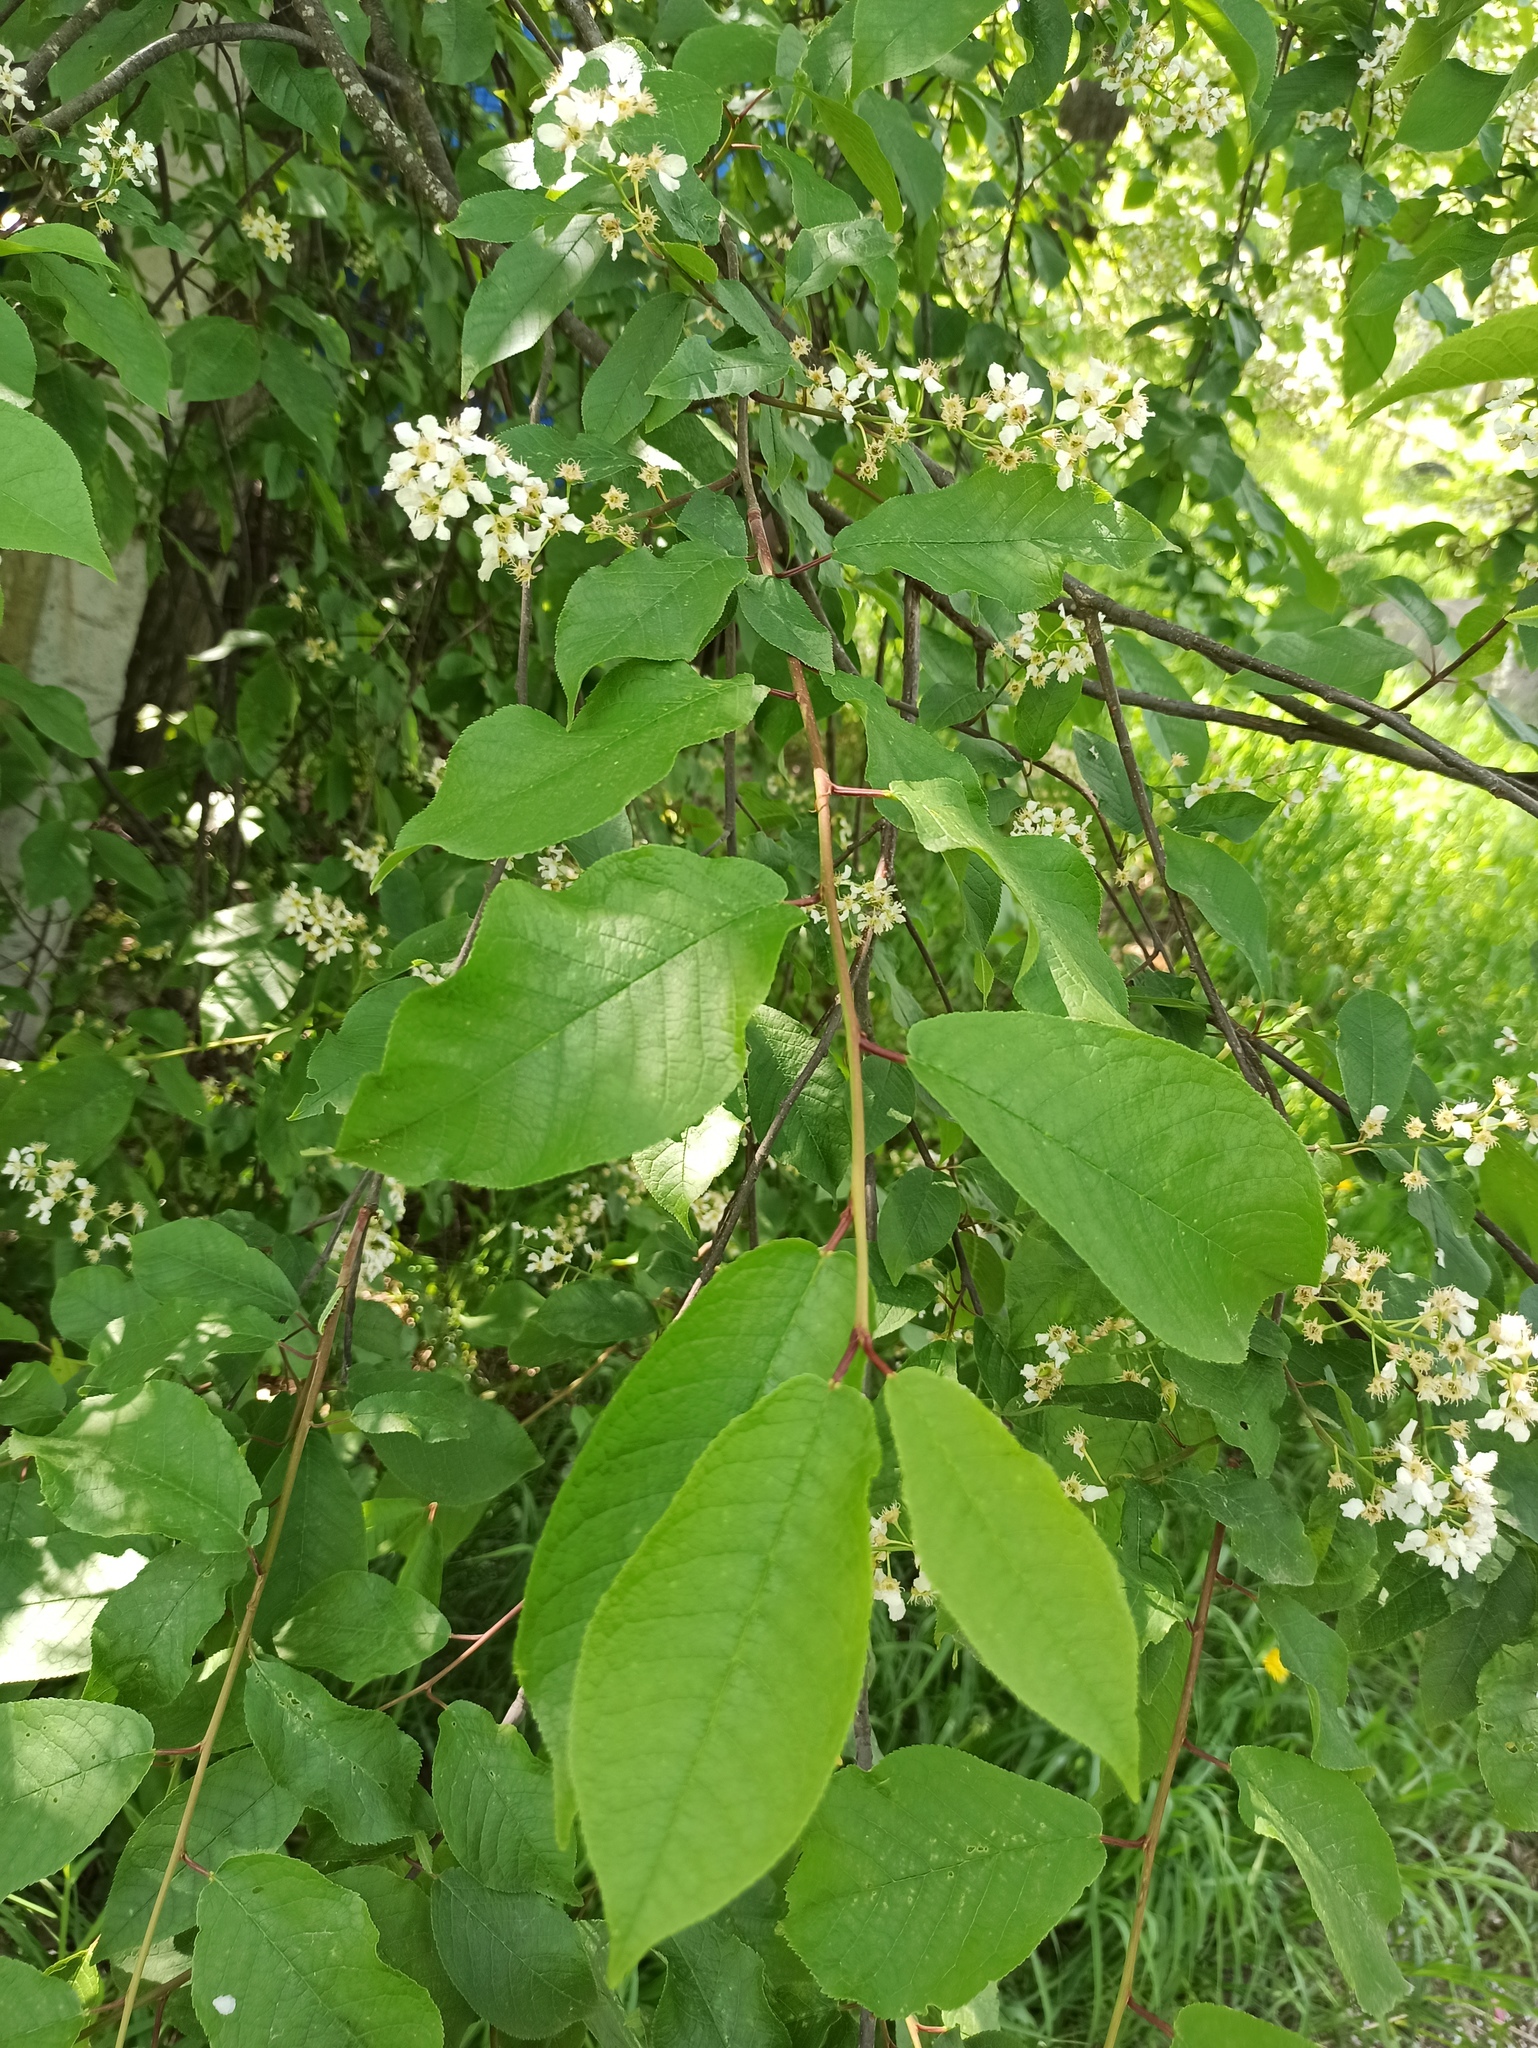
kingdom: Plantae
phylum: Tracheophyta
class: Magnoliopsida
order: Rosales
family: Rosaceae
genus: Prunus
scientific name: Prunus padus
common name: Bird cherry
